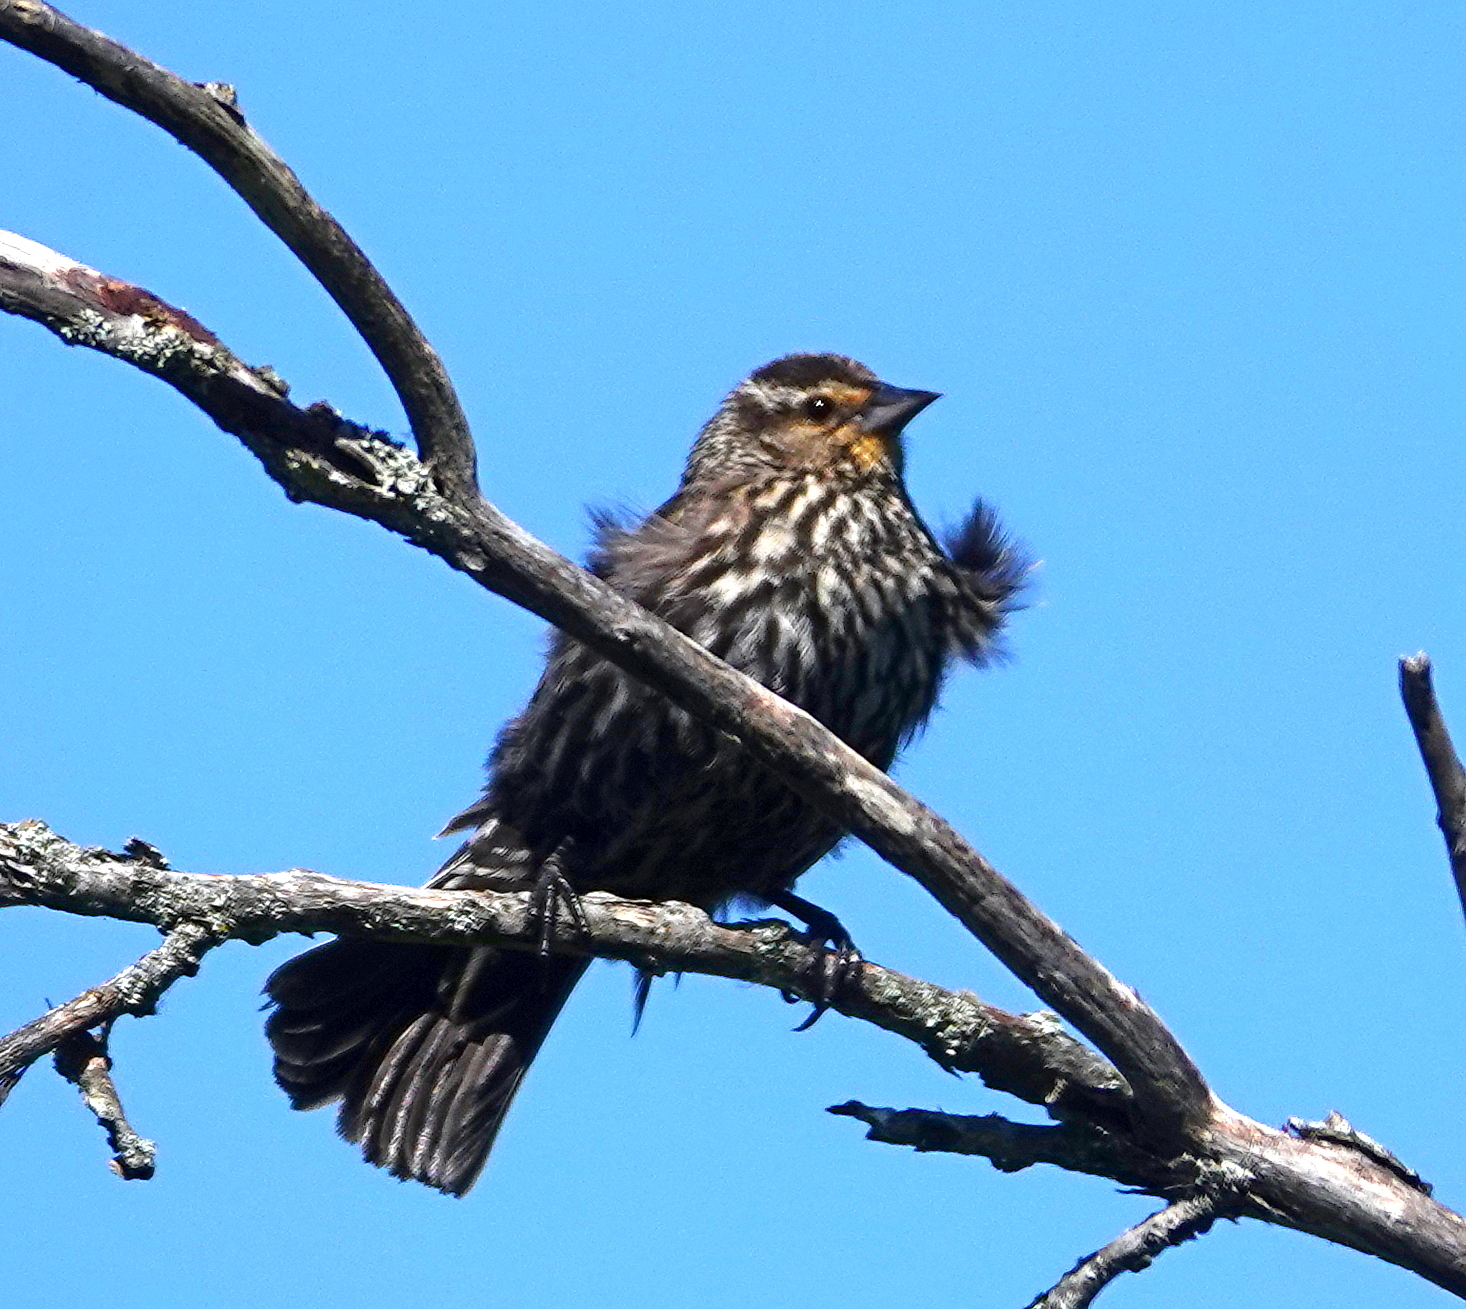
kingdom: Animalia
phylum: Chordata
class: Aves
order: Passeriformes
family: Icteridae
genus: Agelaius
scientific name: Agelaius phoeniceus
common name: Red-winged blackbird
